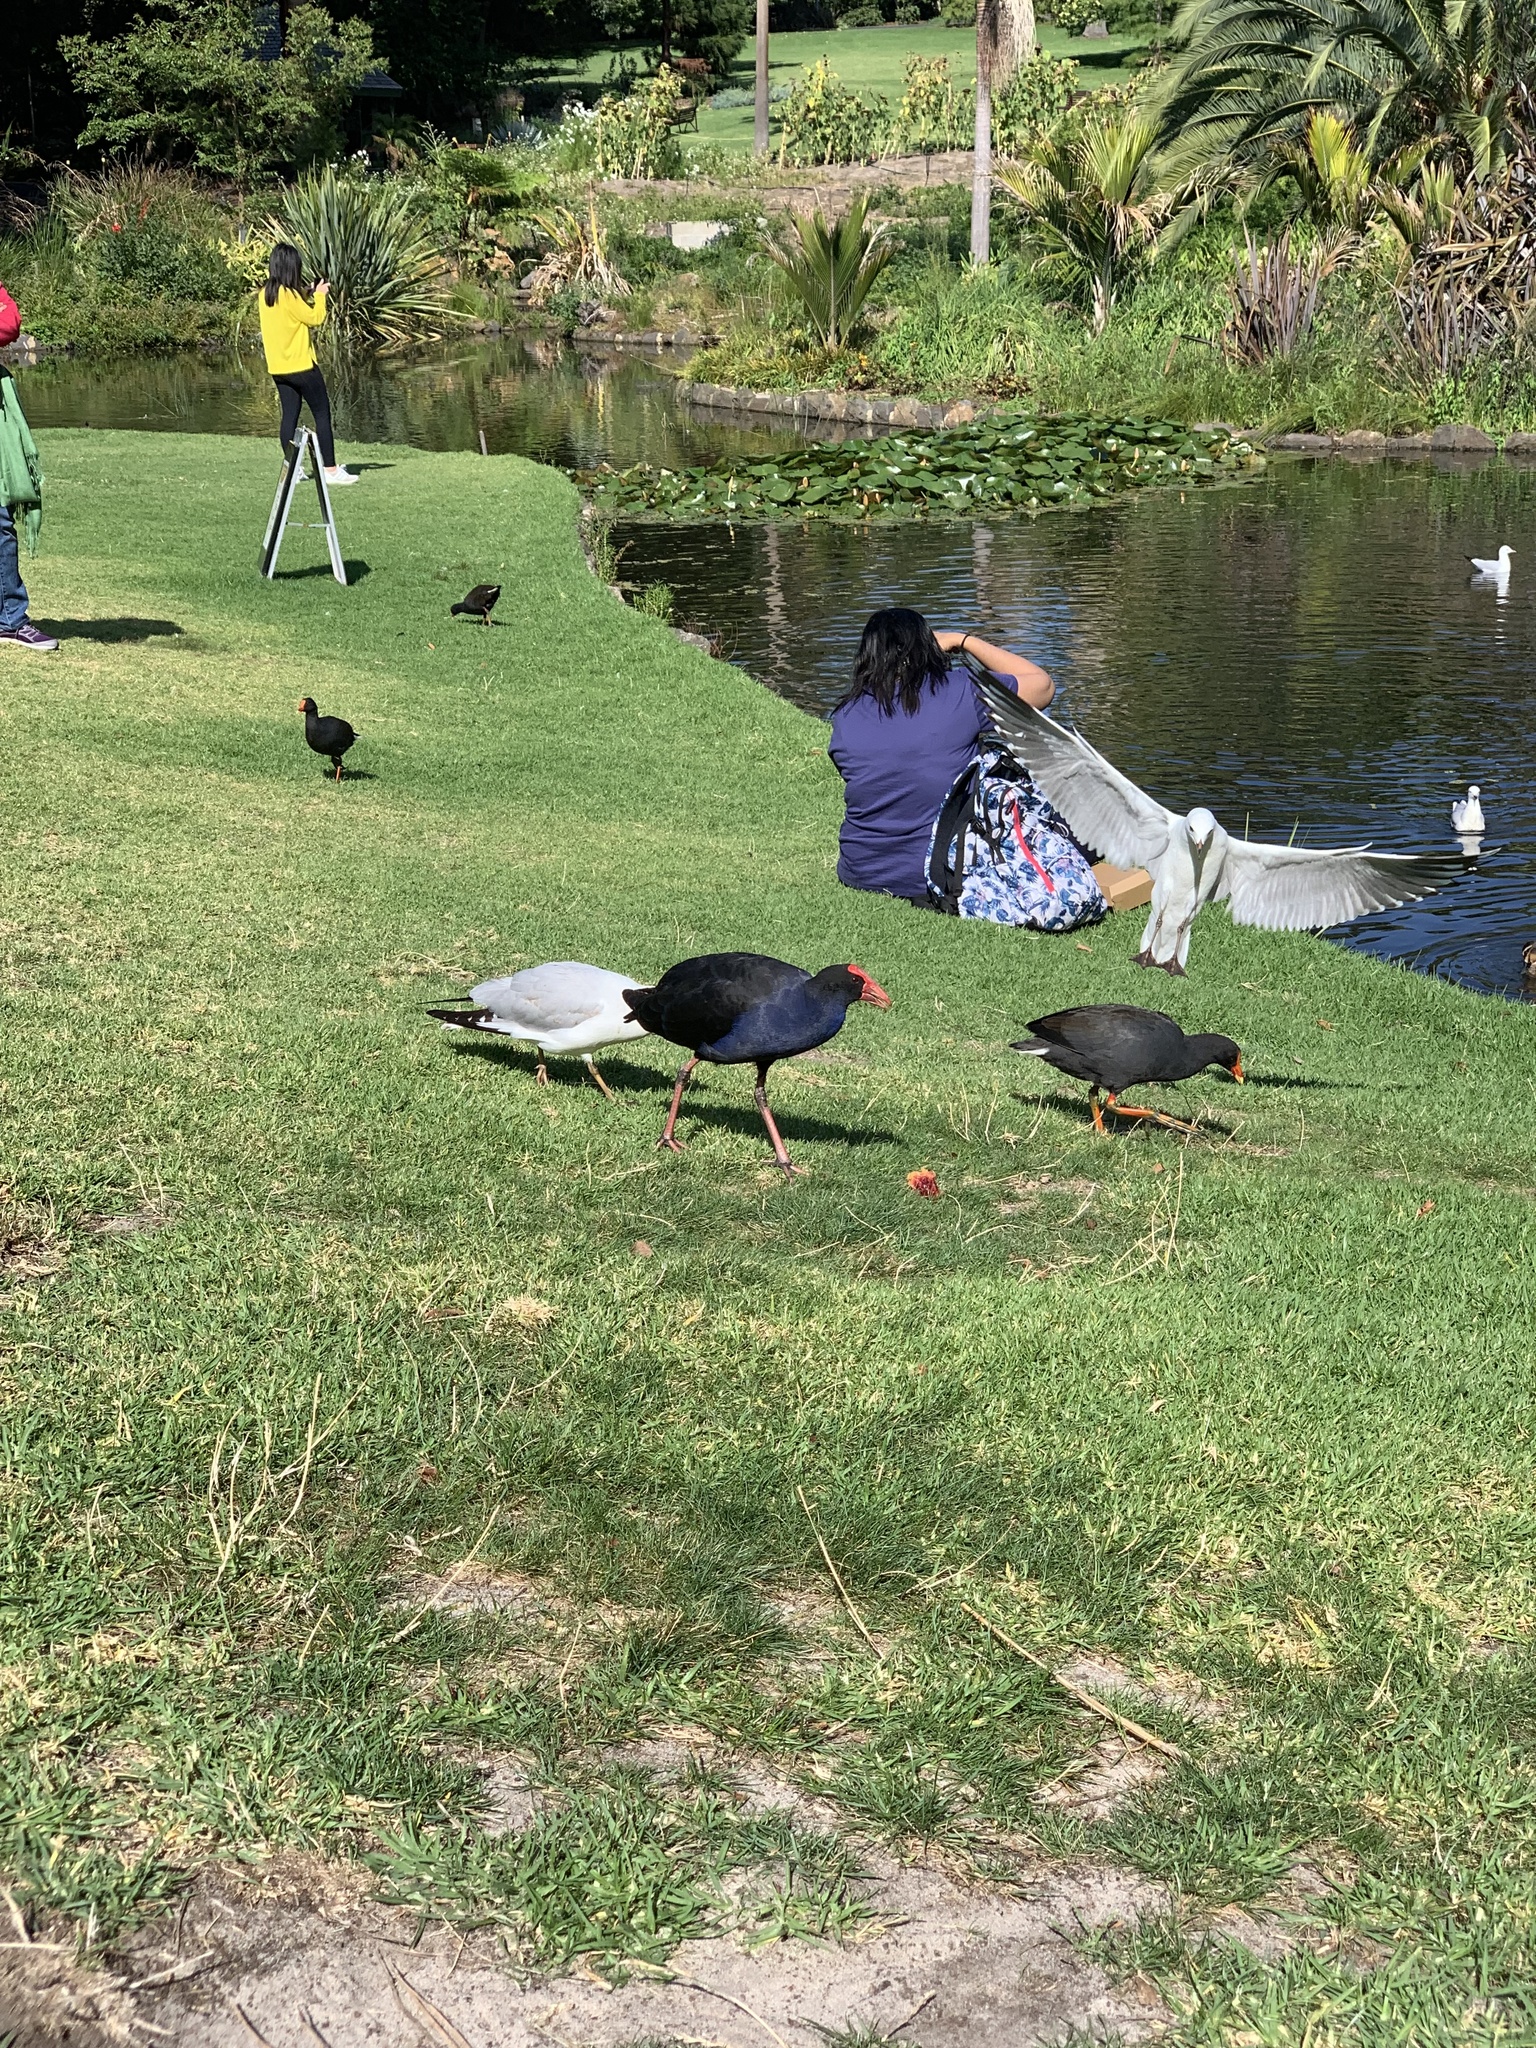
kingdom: Animalia
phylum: Chordata
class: Aves
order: Gruiformes
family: Rallidae
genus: Porphyrio
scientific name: Porphyrio melanotus
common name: Australasian swamphen
